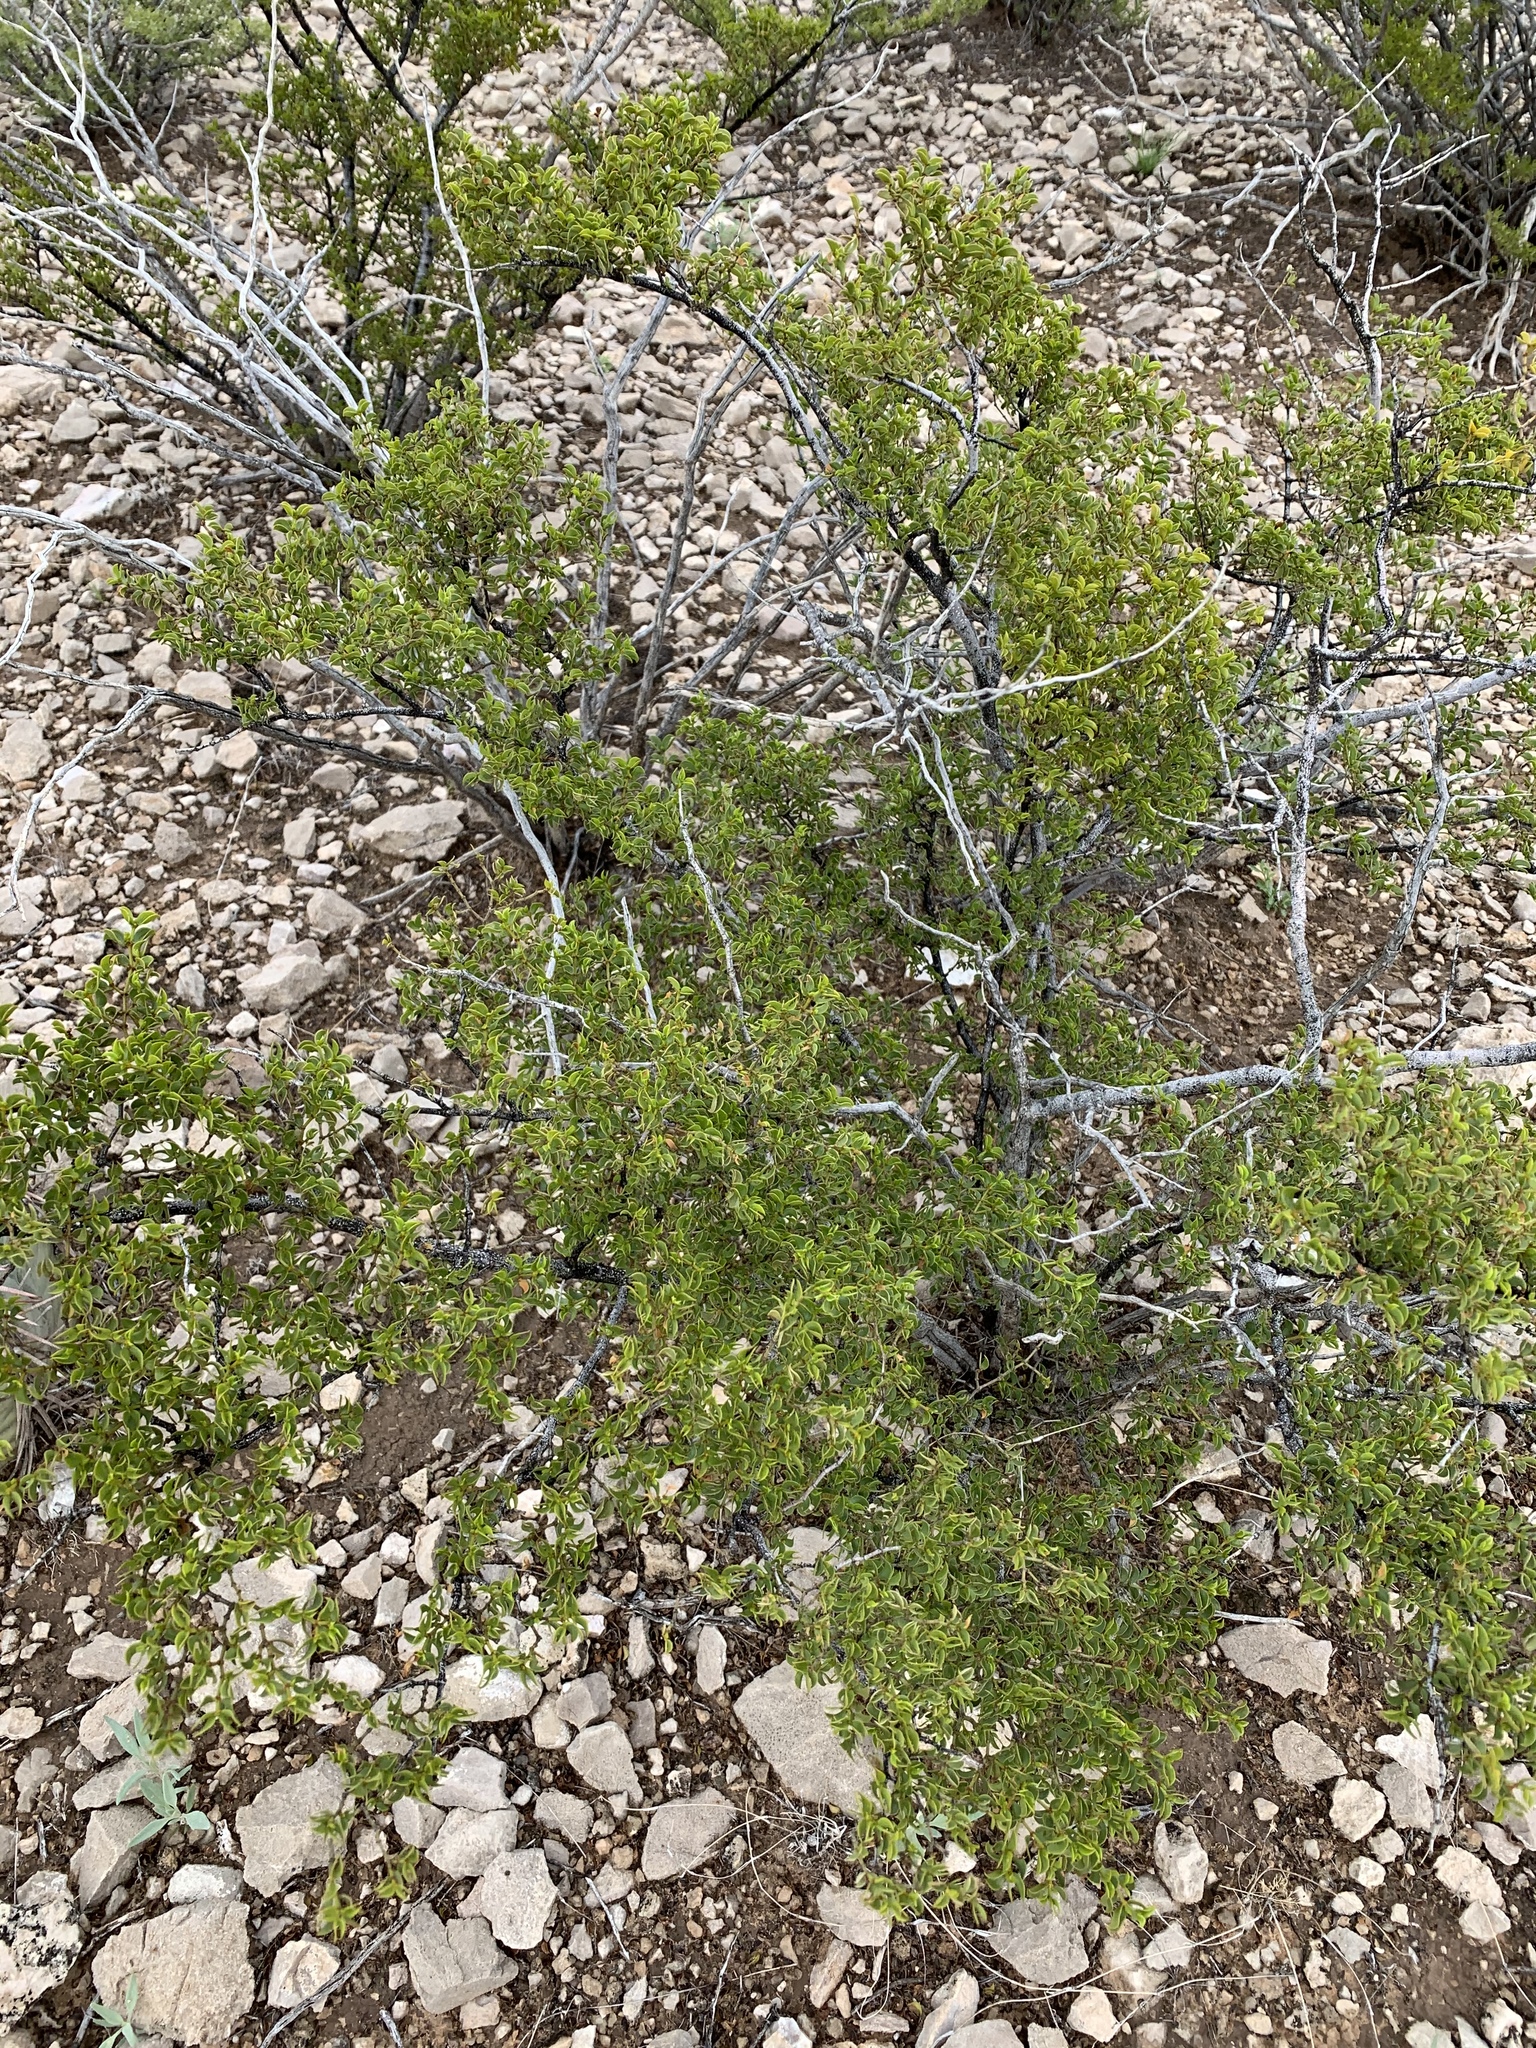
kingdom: Plantae
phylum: Tracheophyta
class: Magnoliopsida
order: Zygophyllales
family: Zygophyllaceae
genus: Larrea
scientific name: Larrea tridentata
